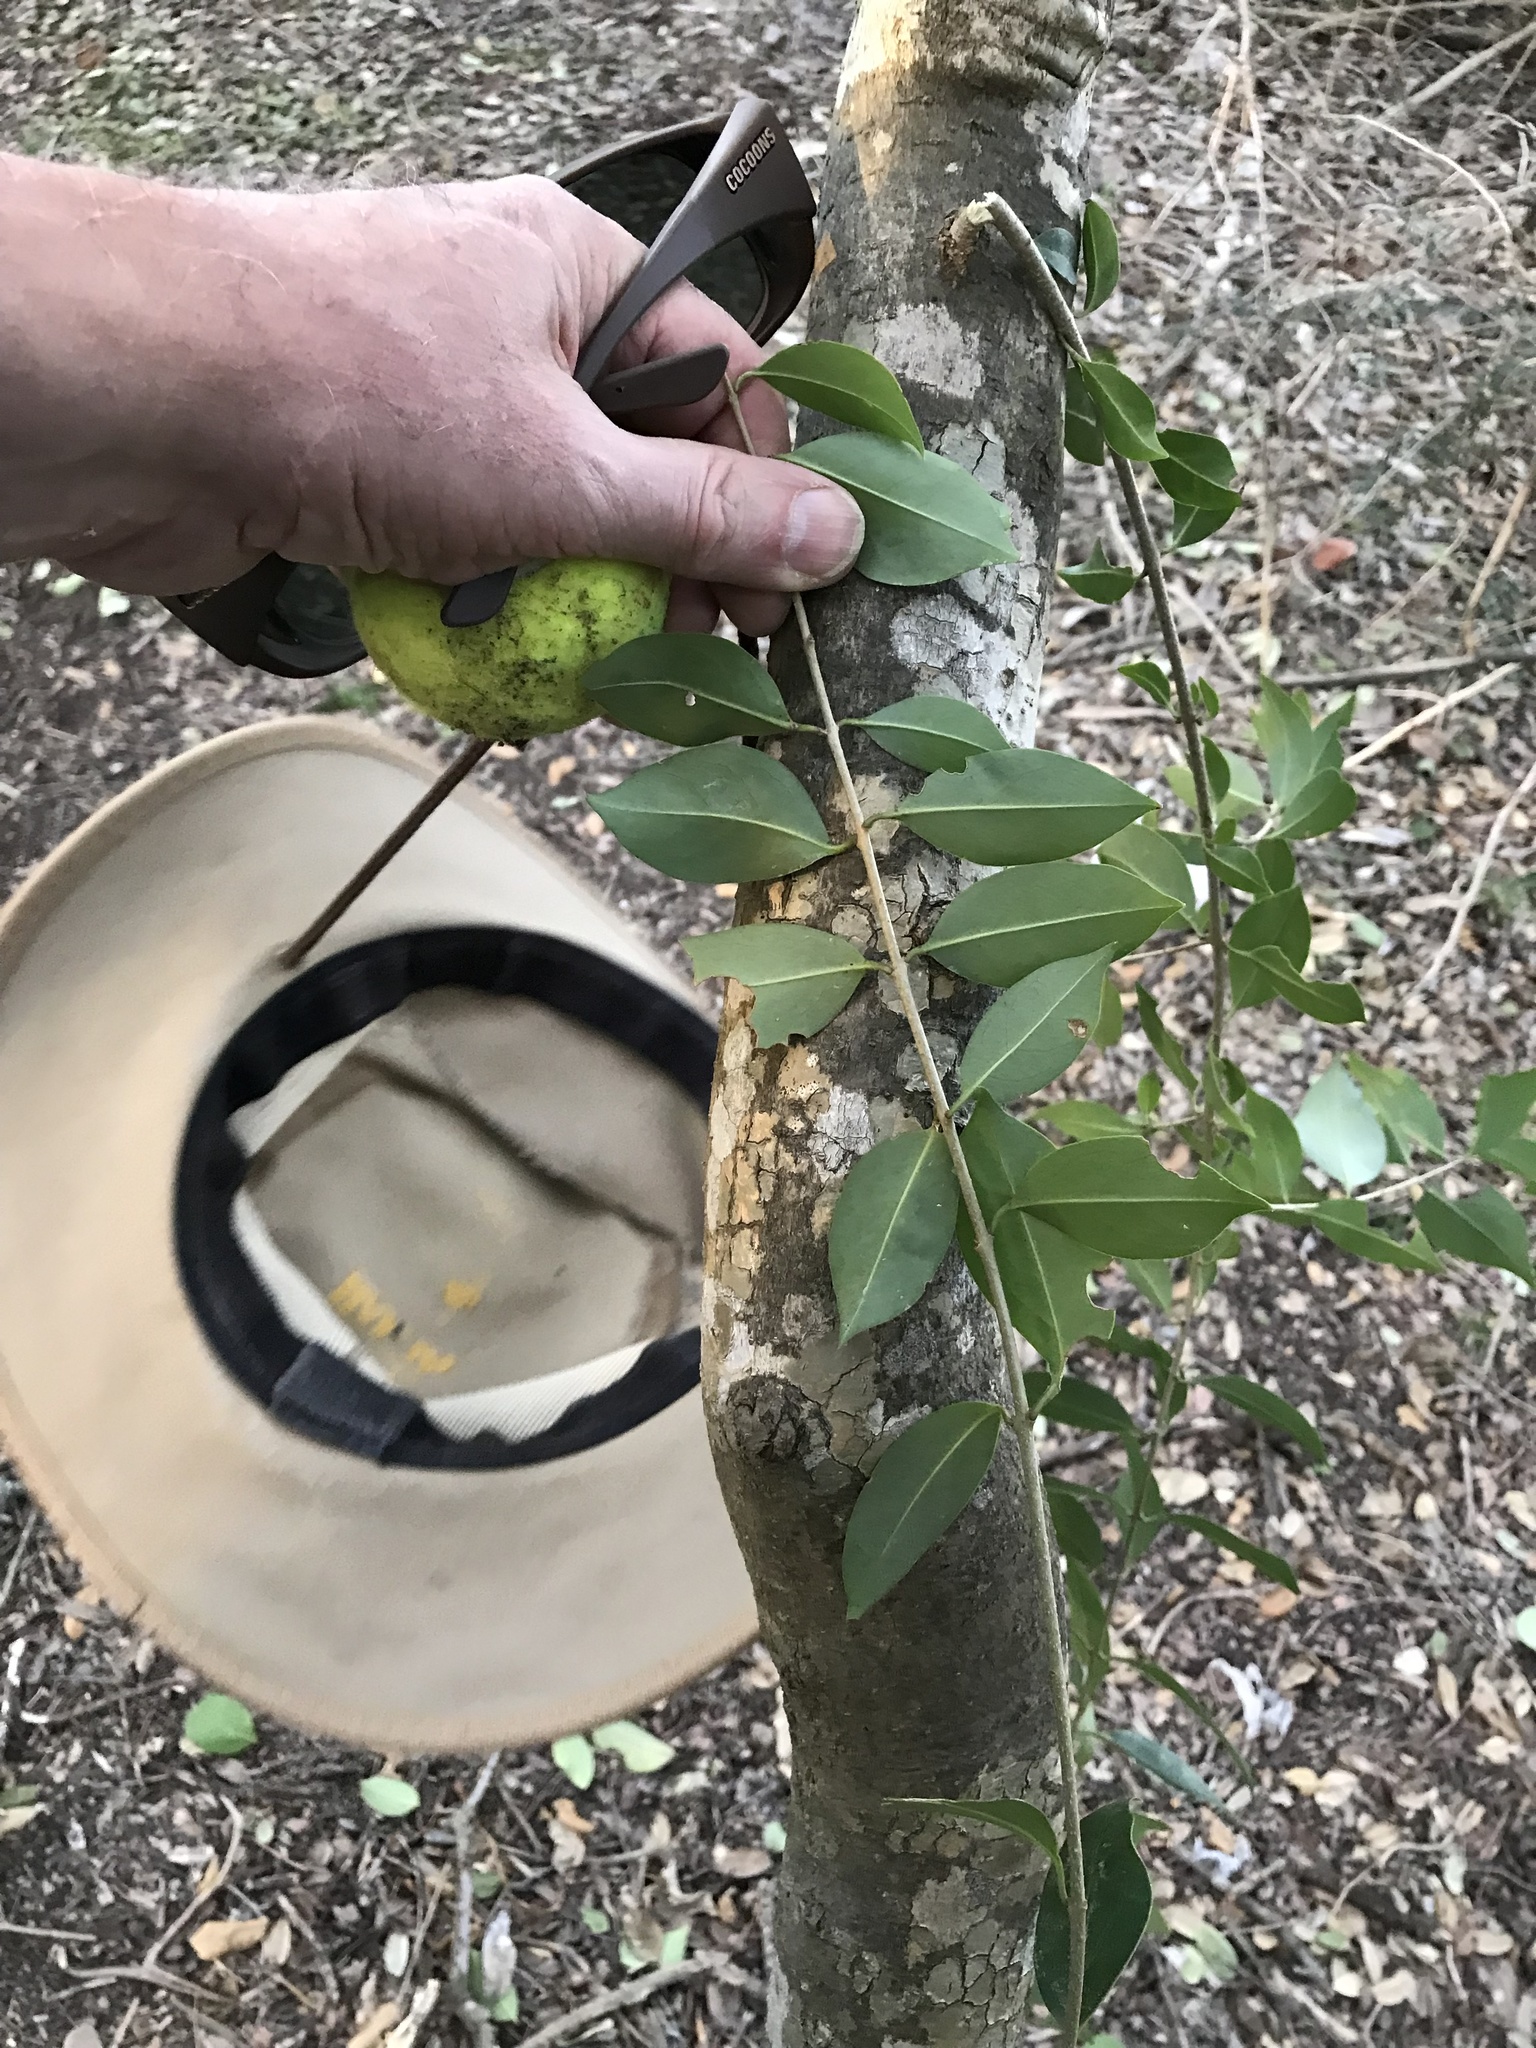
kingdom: Plantae
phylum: Tracheophyta
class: Magnoliopsida
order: Lamiales
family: Oleaceae
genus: Ligustrum
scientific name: Ligustrum lucidum
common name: Glossy privet
